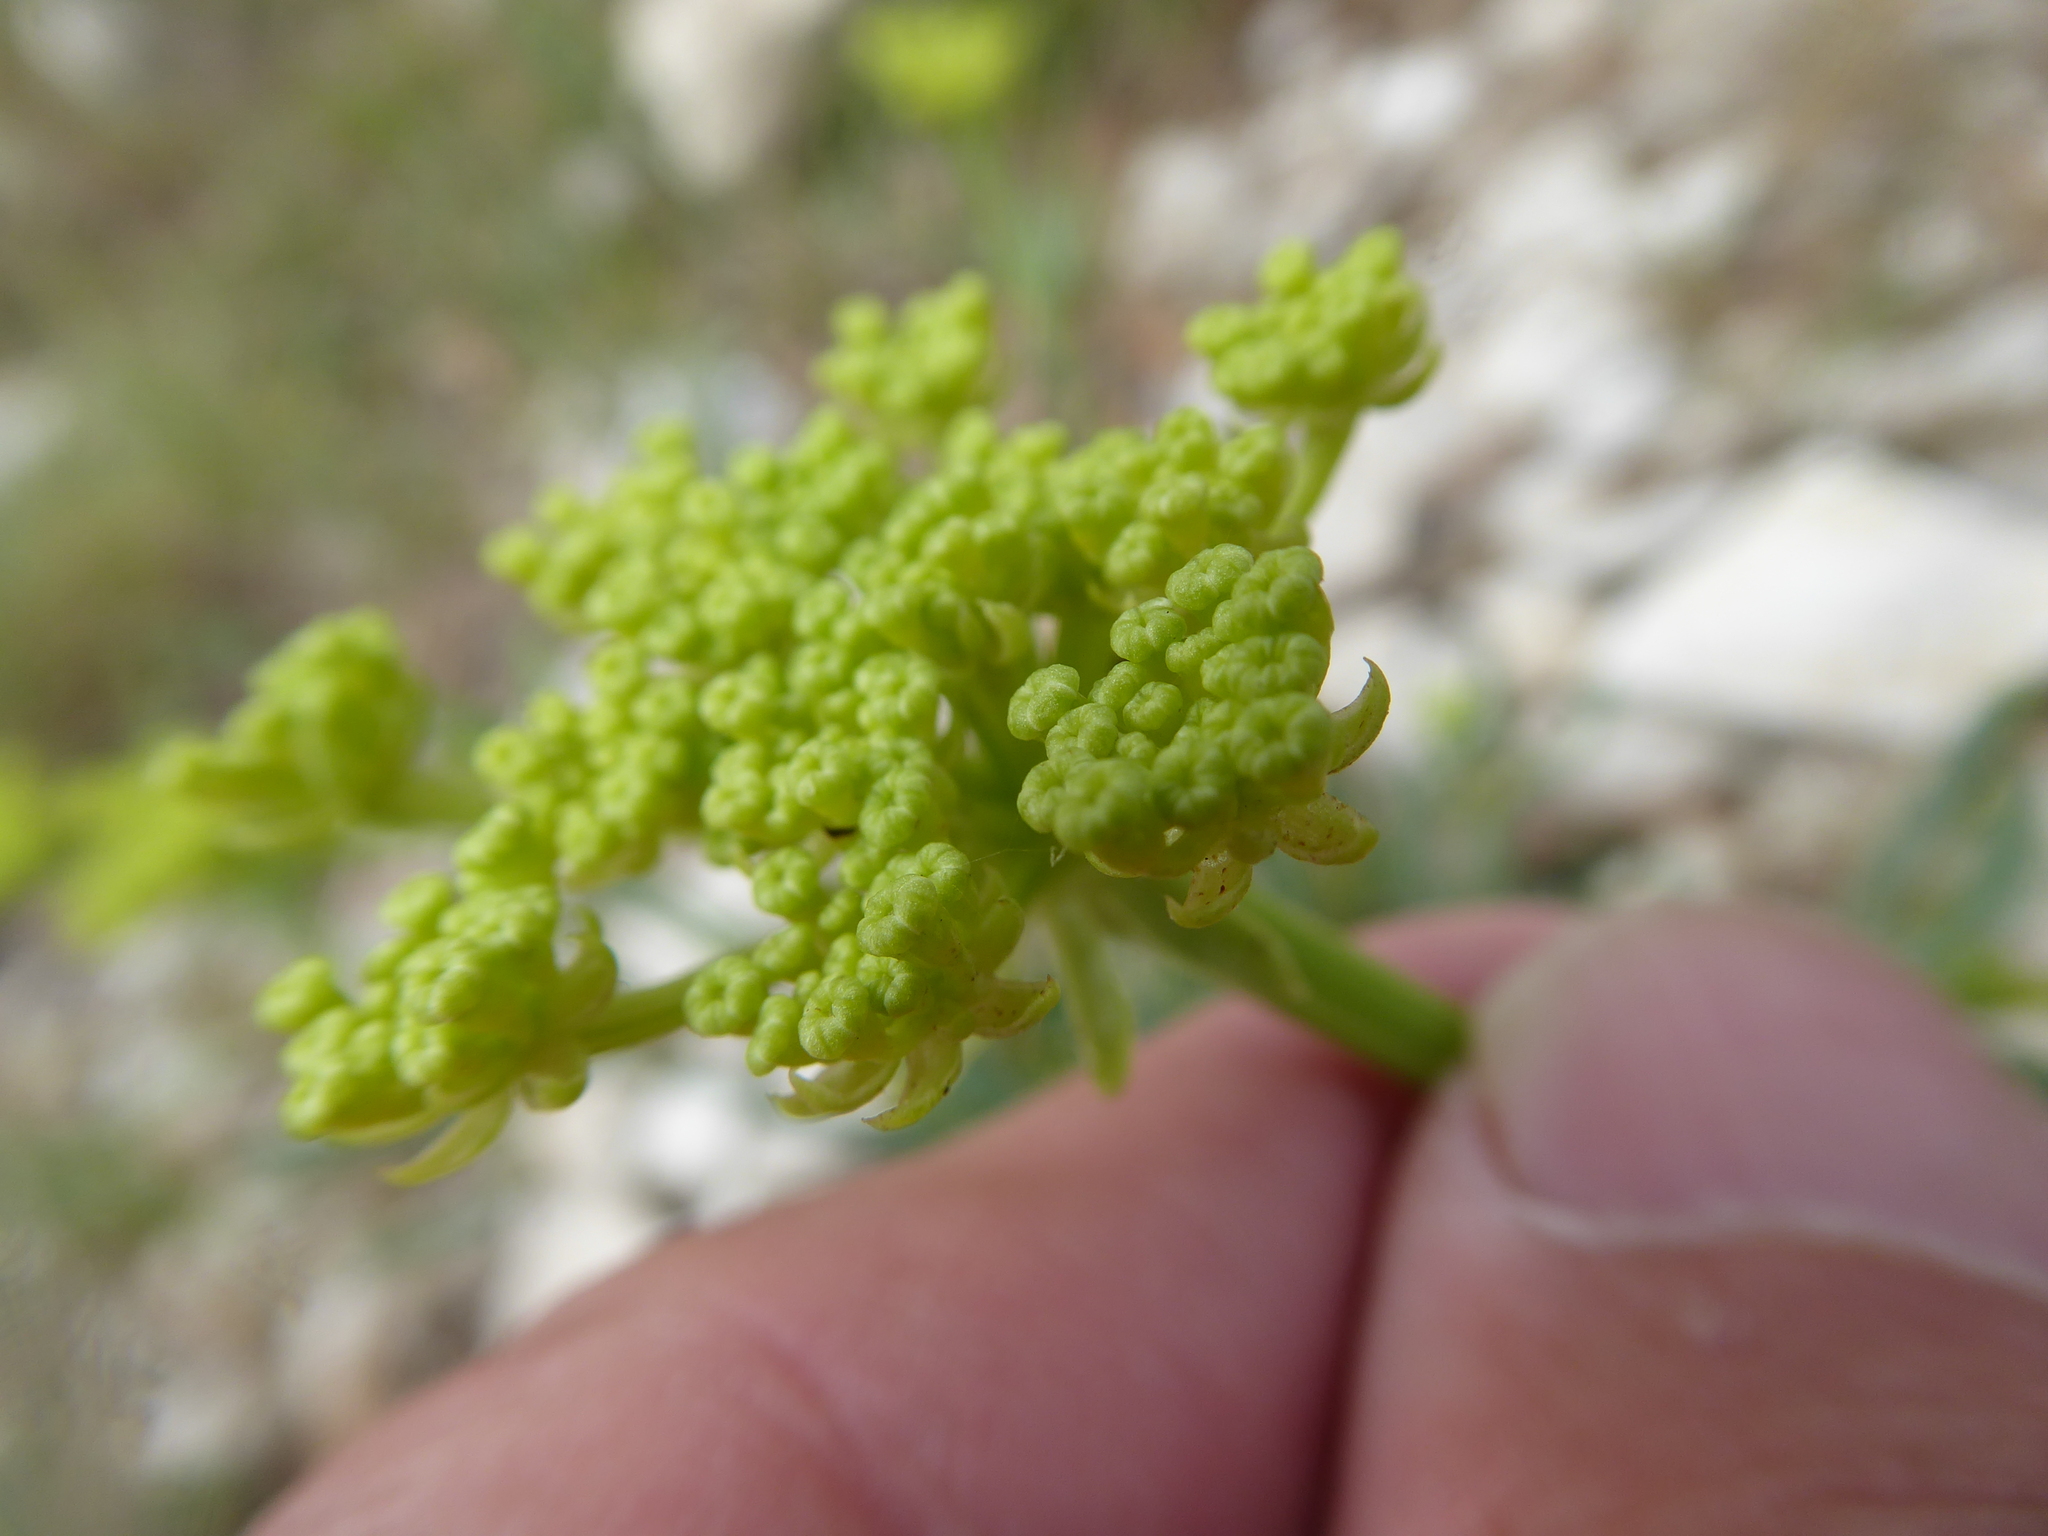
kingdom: Plantae
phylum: Tracheophyta
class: Magnoliopsida
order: Apiales
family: Apiaceae
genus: Crithmum
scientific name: Crithmum maritimum
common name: Rock samphire
